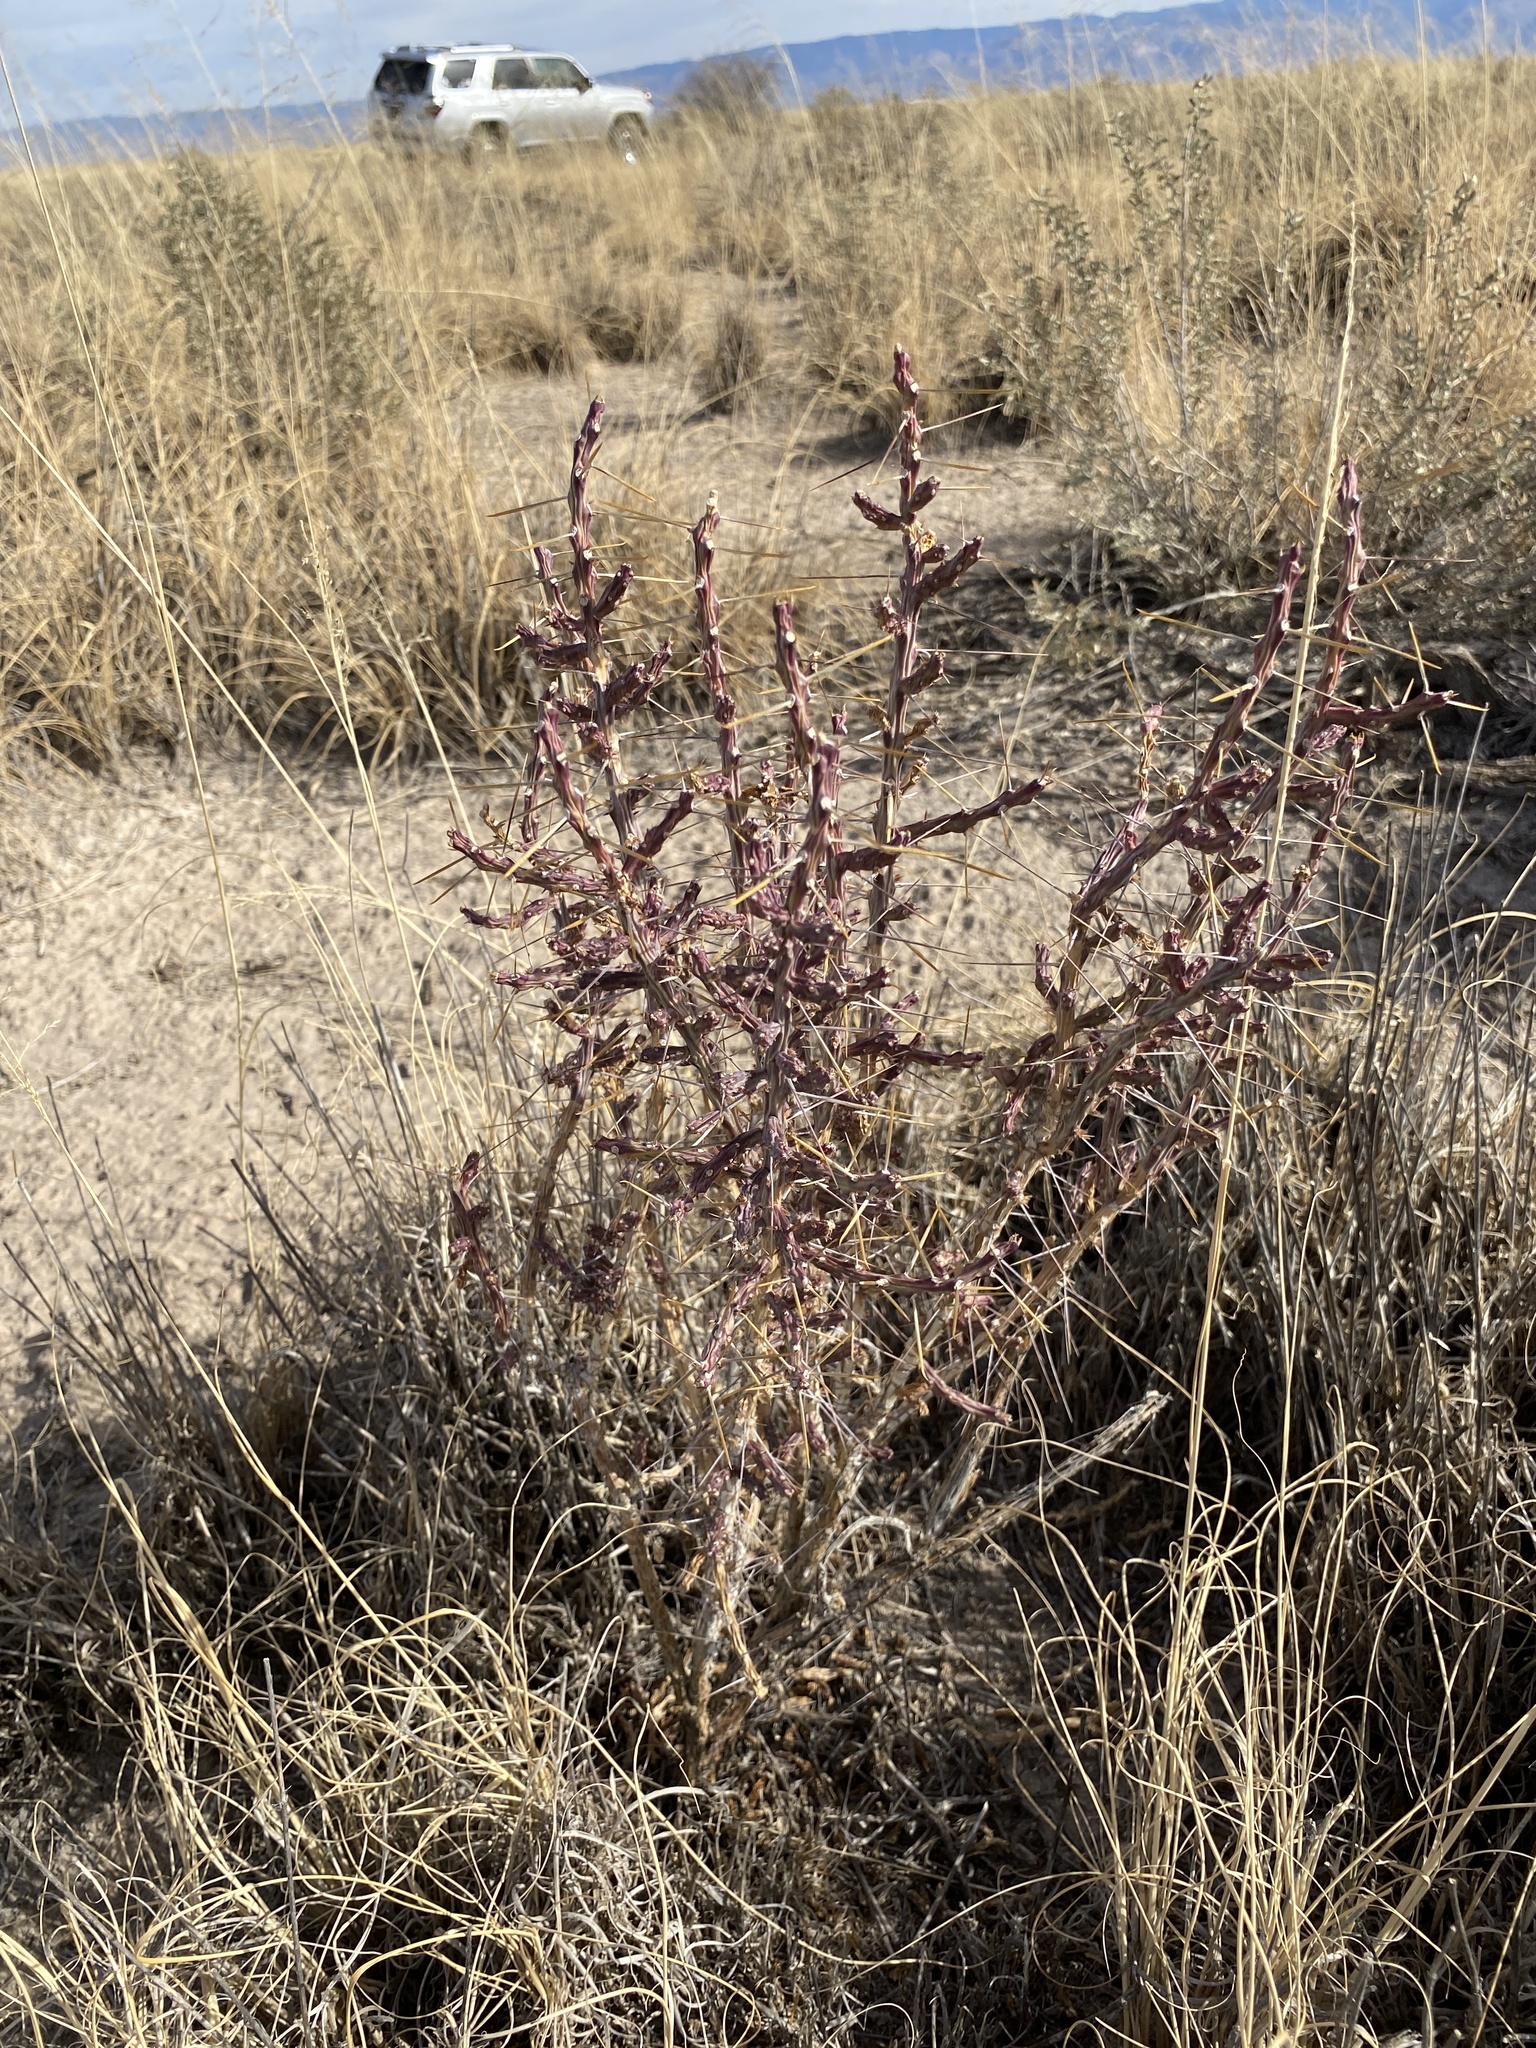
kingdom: Plantae
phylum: Tracheophyta
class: Magnoliopsida
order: Caryophyllales
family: Cactaceae
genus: Cylindropuntia
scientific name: Cylindropuntia leptocaulis
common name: Christmas cactus
